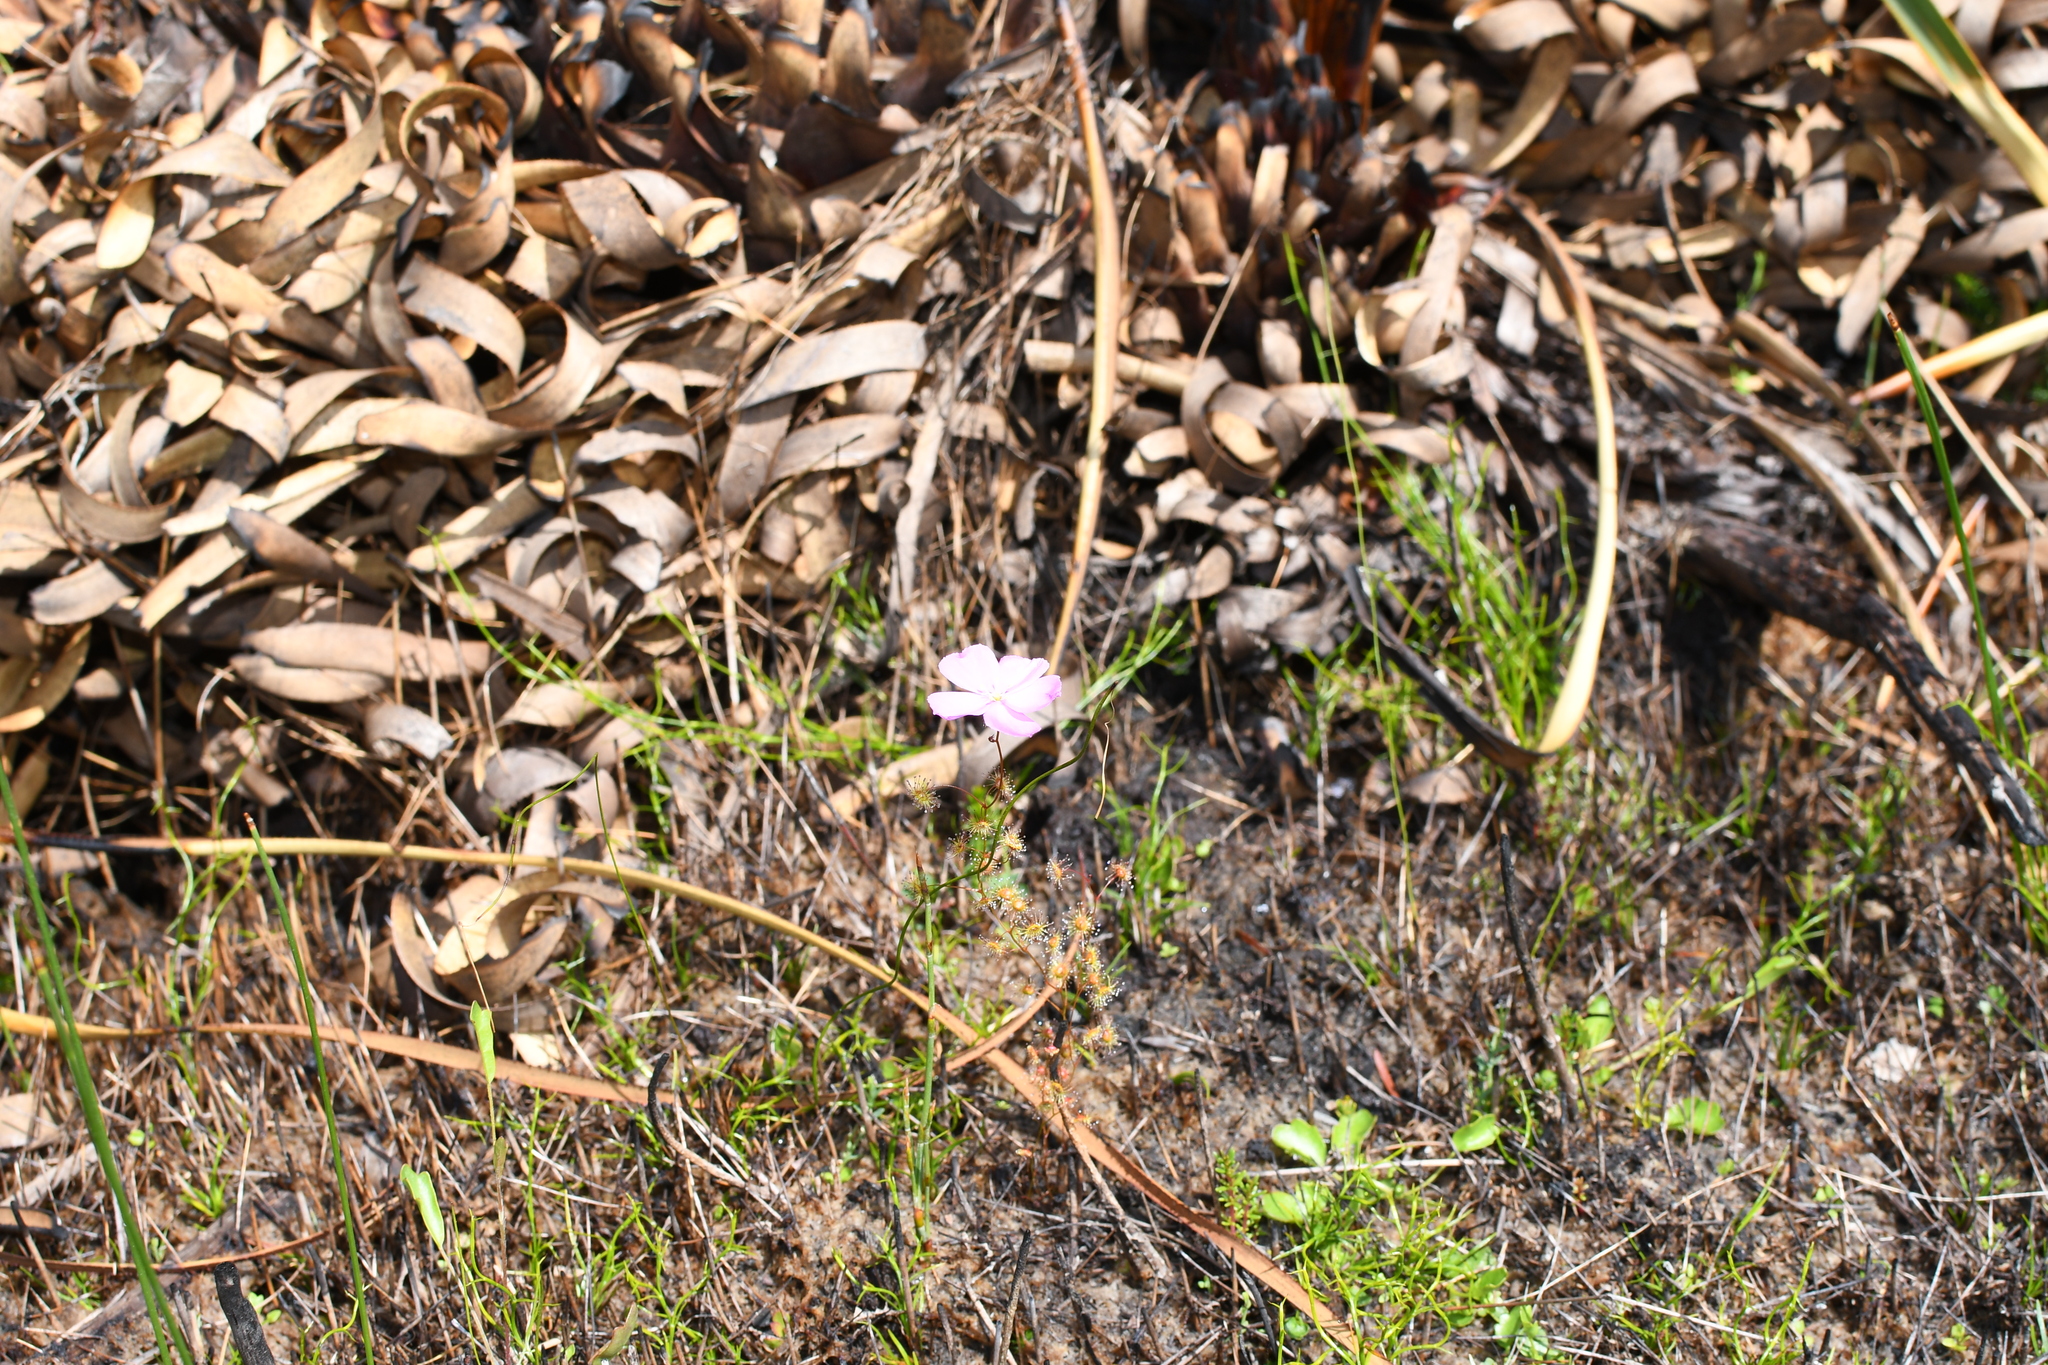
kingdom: Plantae
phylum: Tracheophyta
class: Magnoliopsida
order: Caryophyllales
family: Droseraceae
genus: Drosera
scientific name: Drosera
